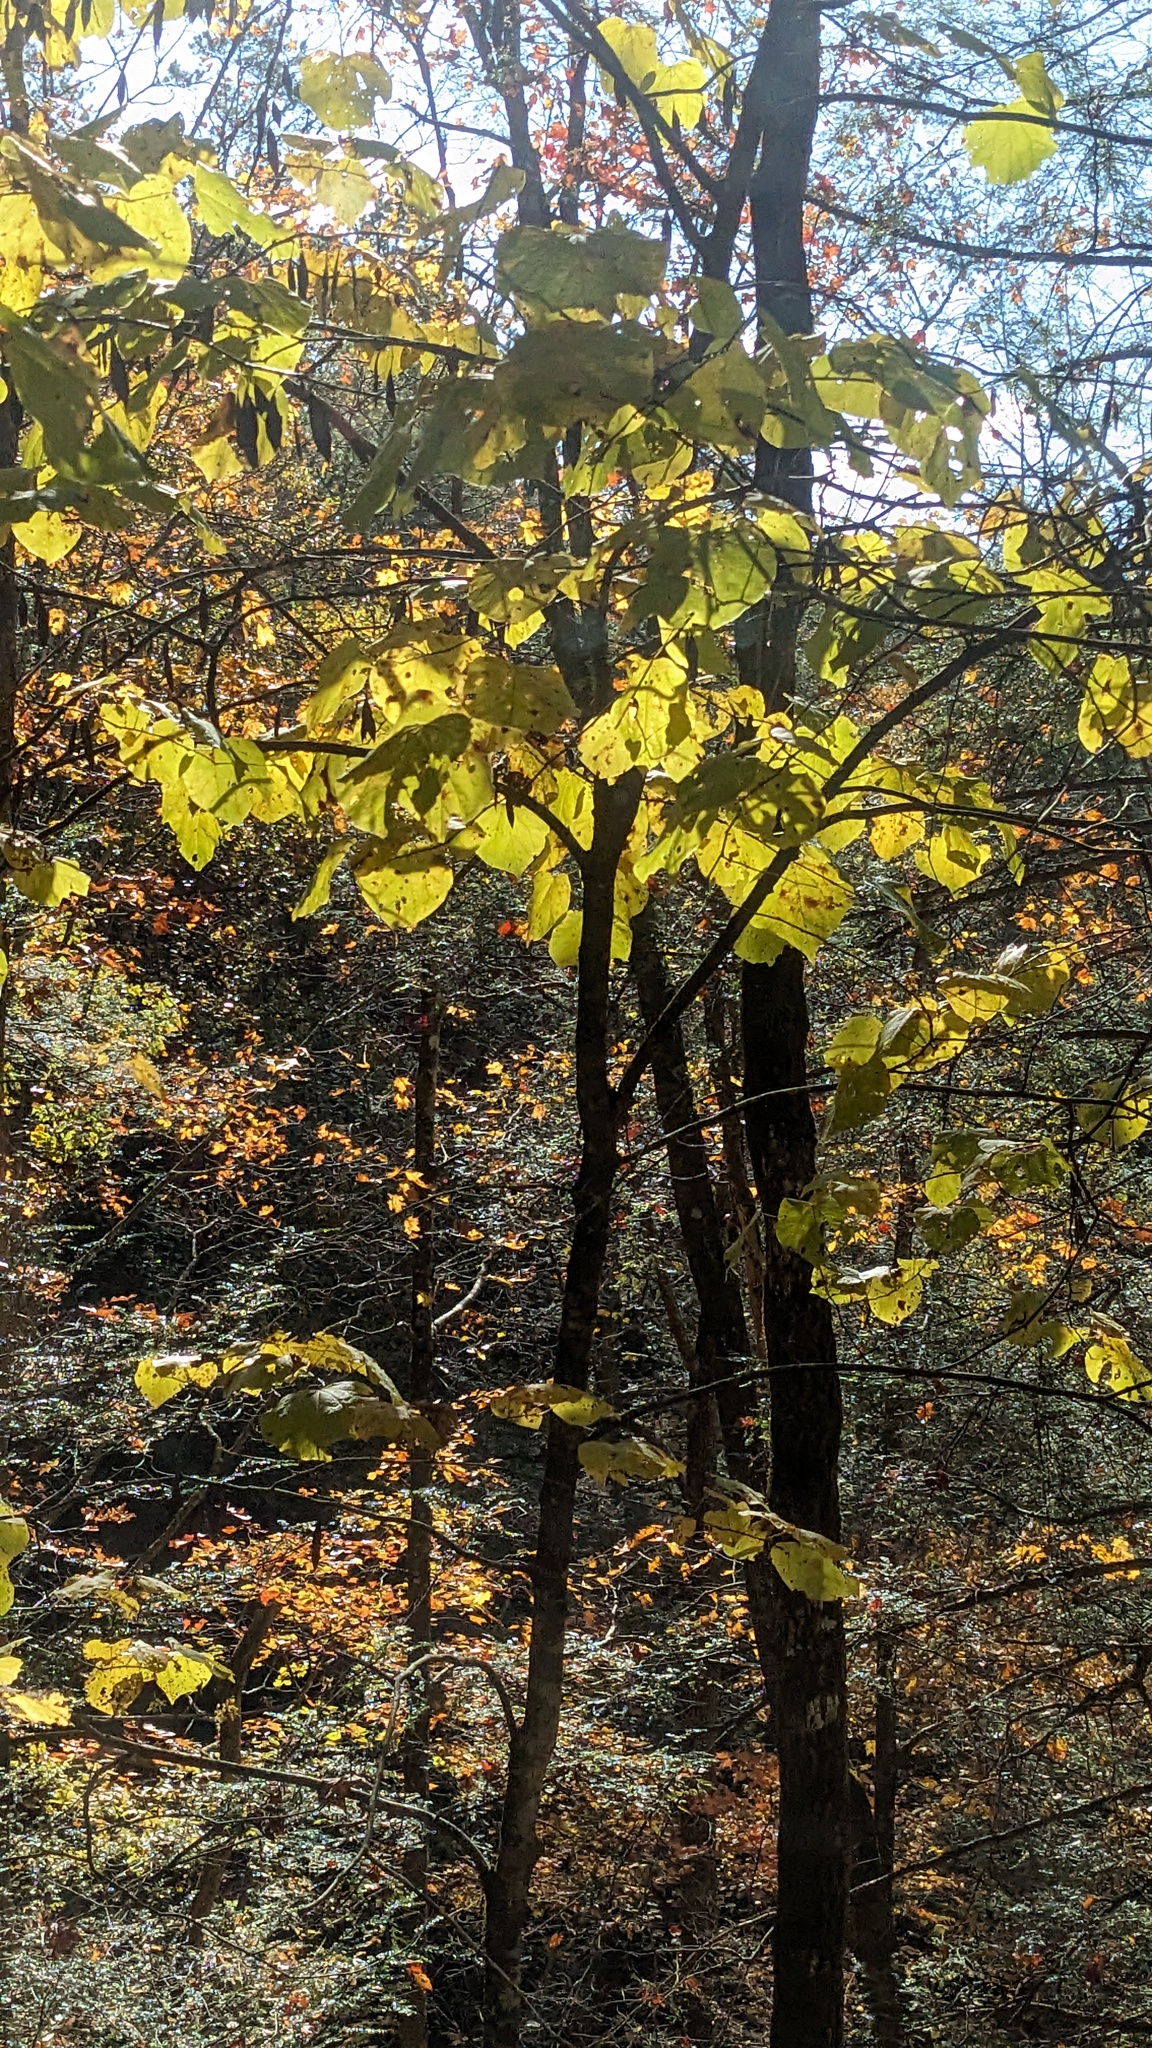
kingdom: Plantae
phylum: Tracheophyta
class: Magnoliopsida
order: Fabales
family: Fabaceae
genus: Cercis
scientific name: Cercis canadensis
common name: Eastern redbud
